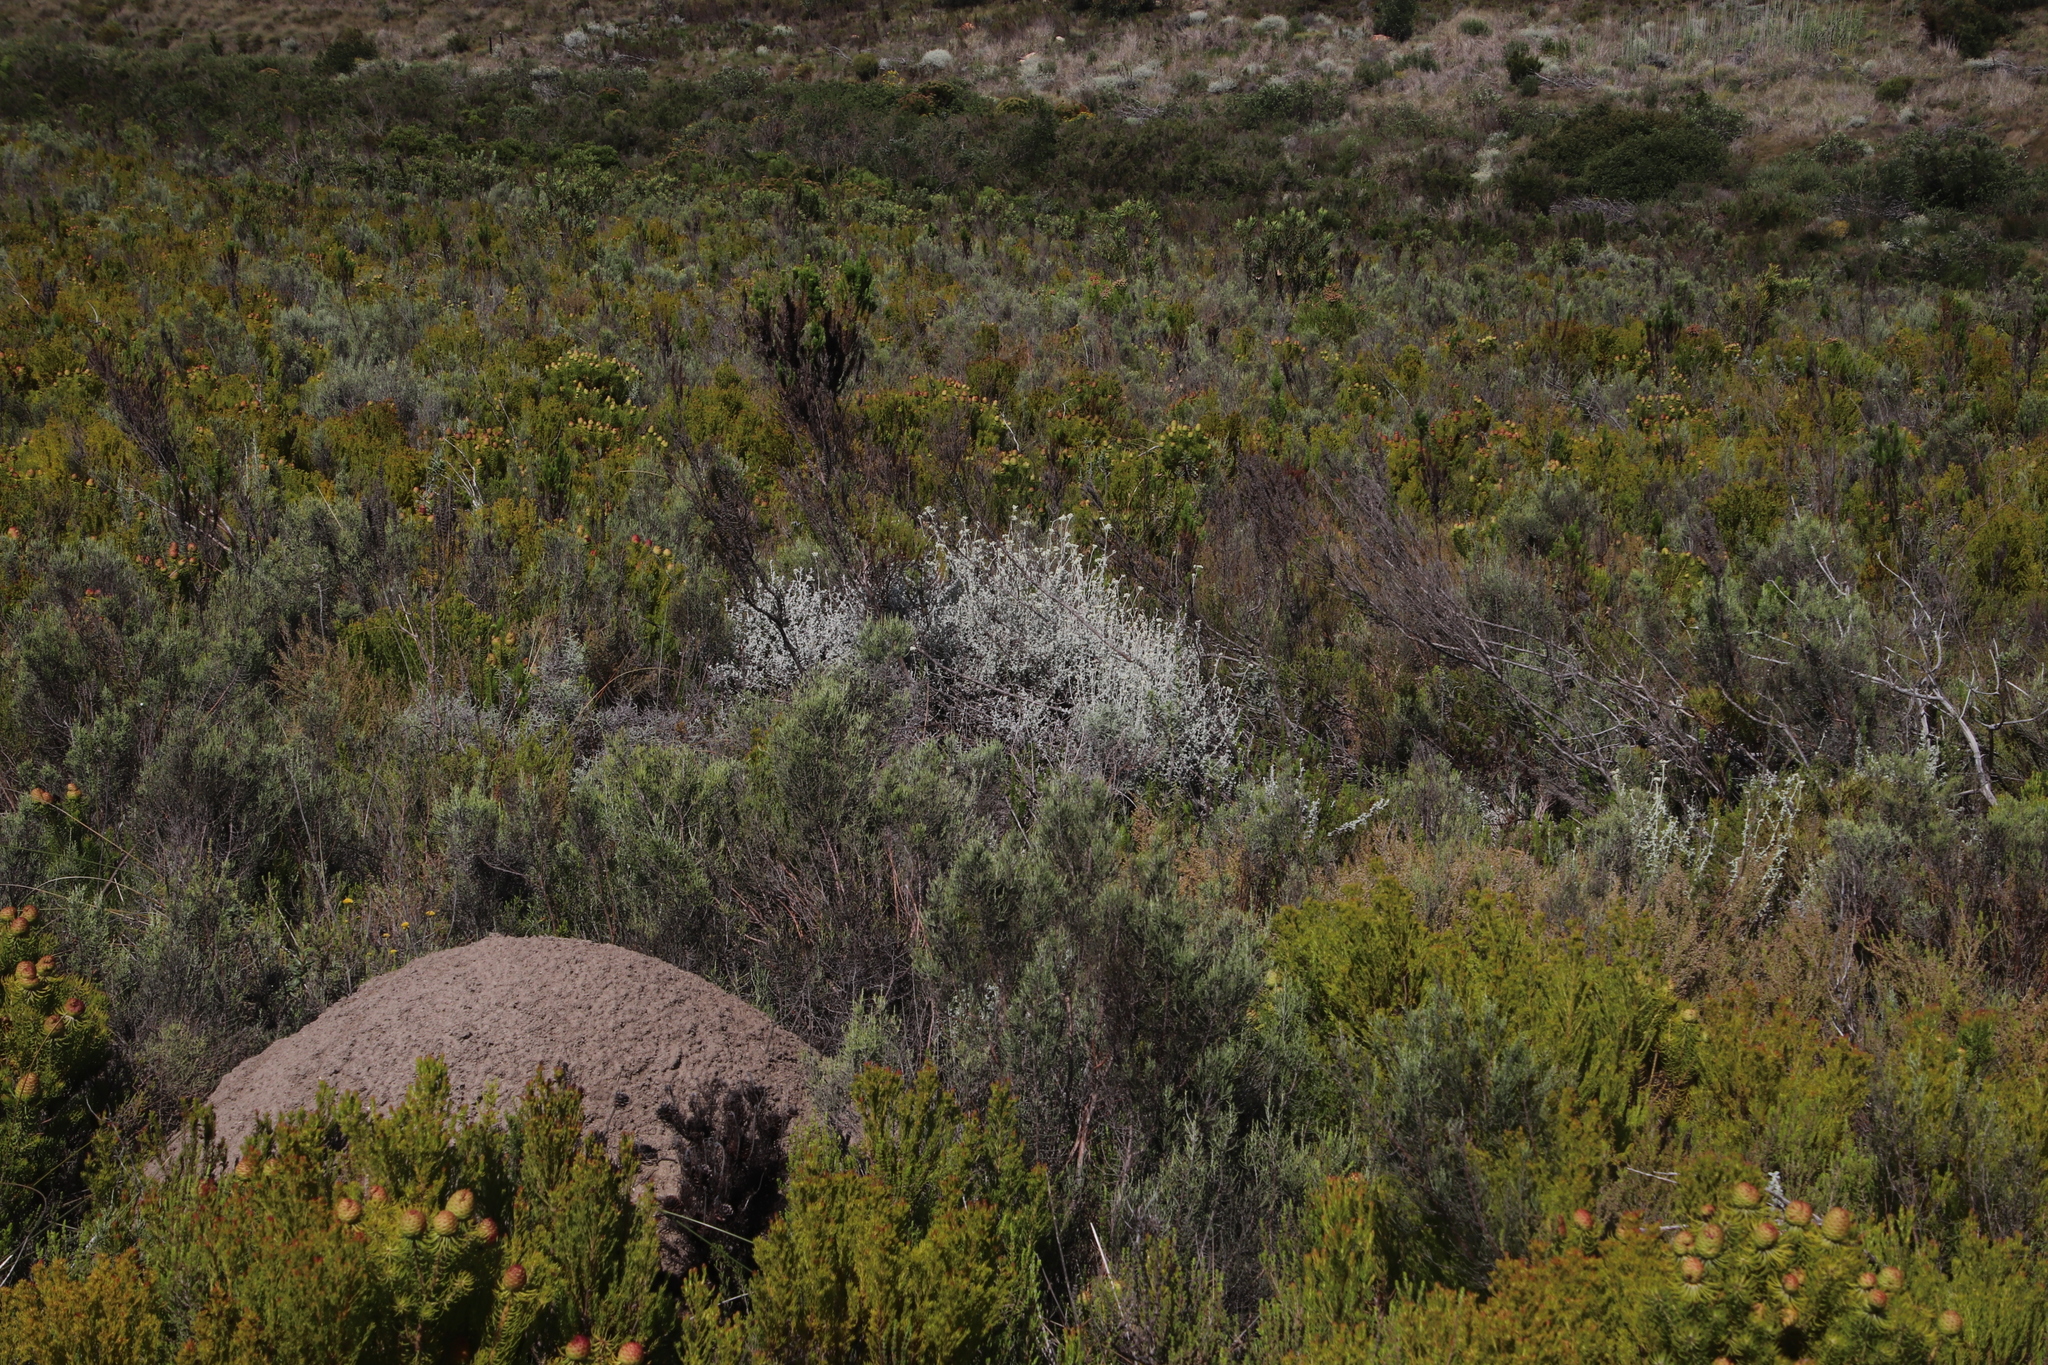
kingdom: Plantae
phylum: Tracheophyta
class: Magnoliopsida
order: Asterales
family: Asteraceae
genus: Helichrysum
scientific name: Helichrysum patulum
